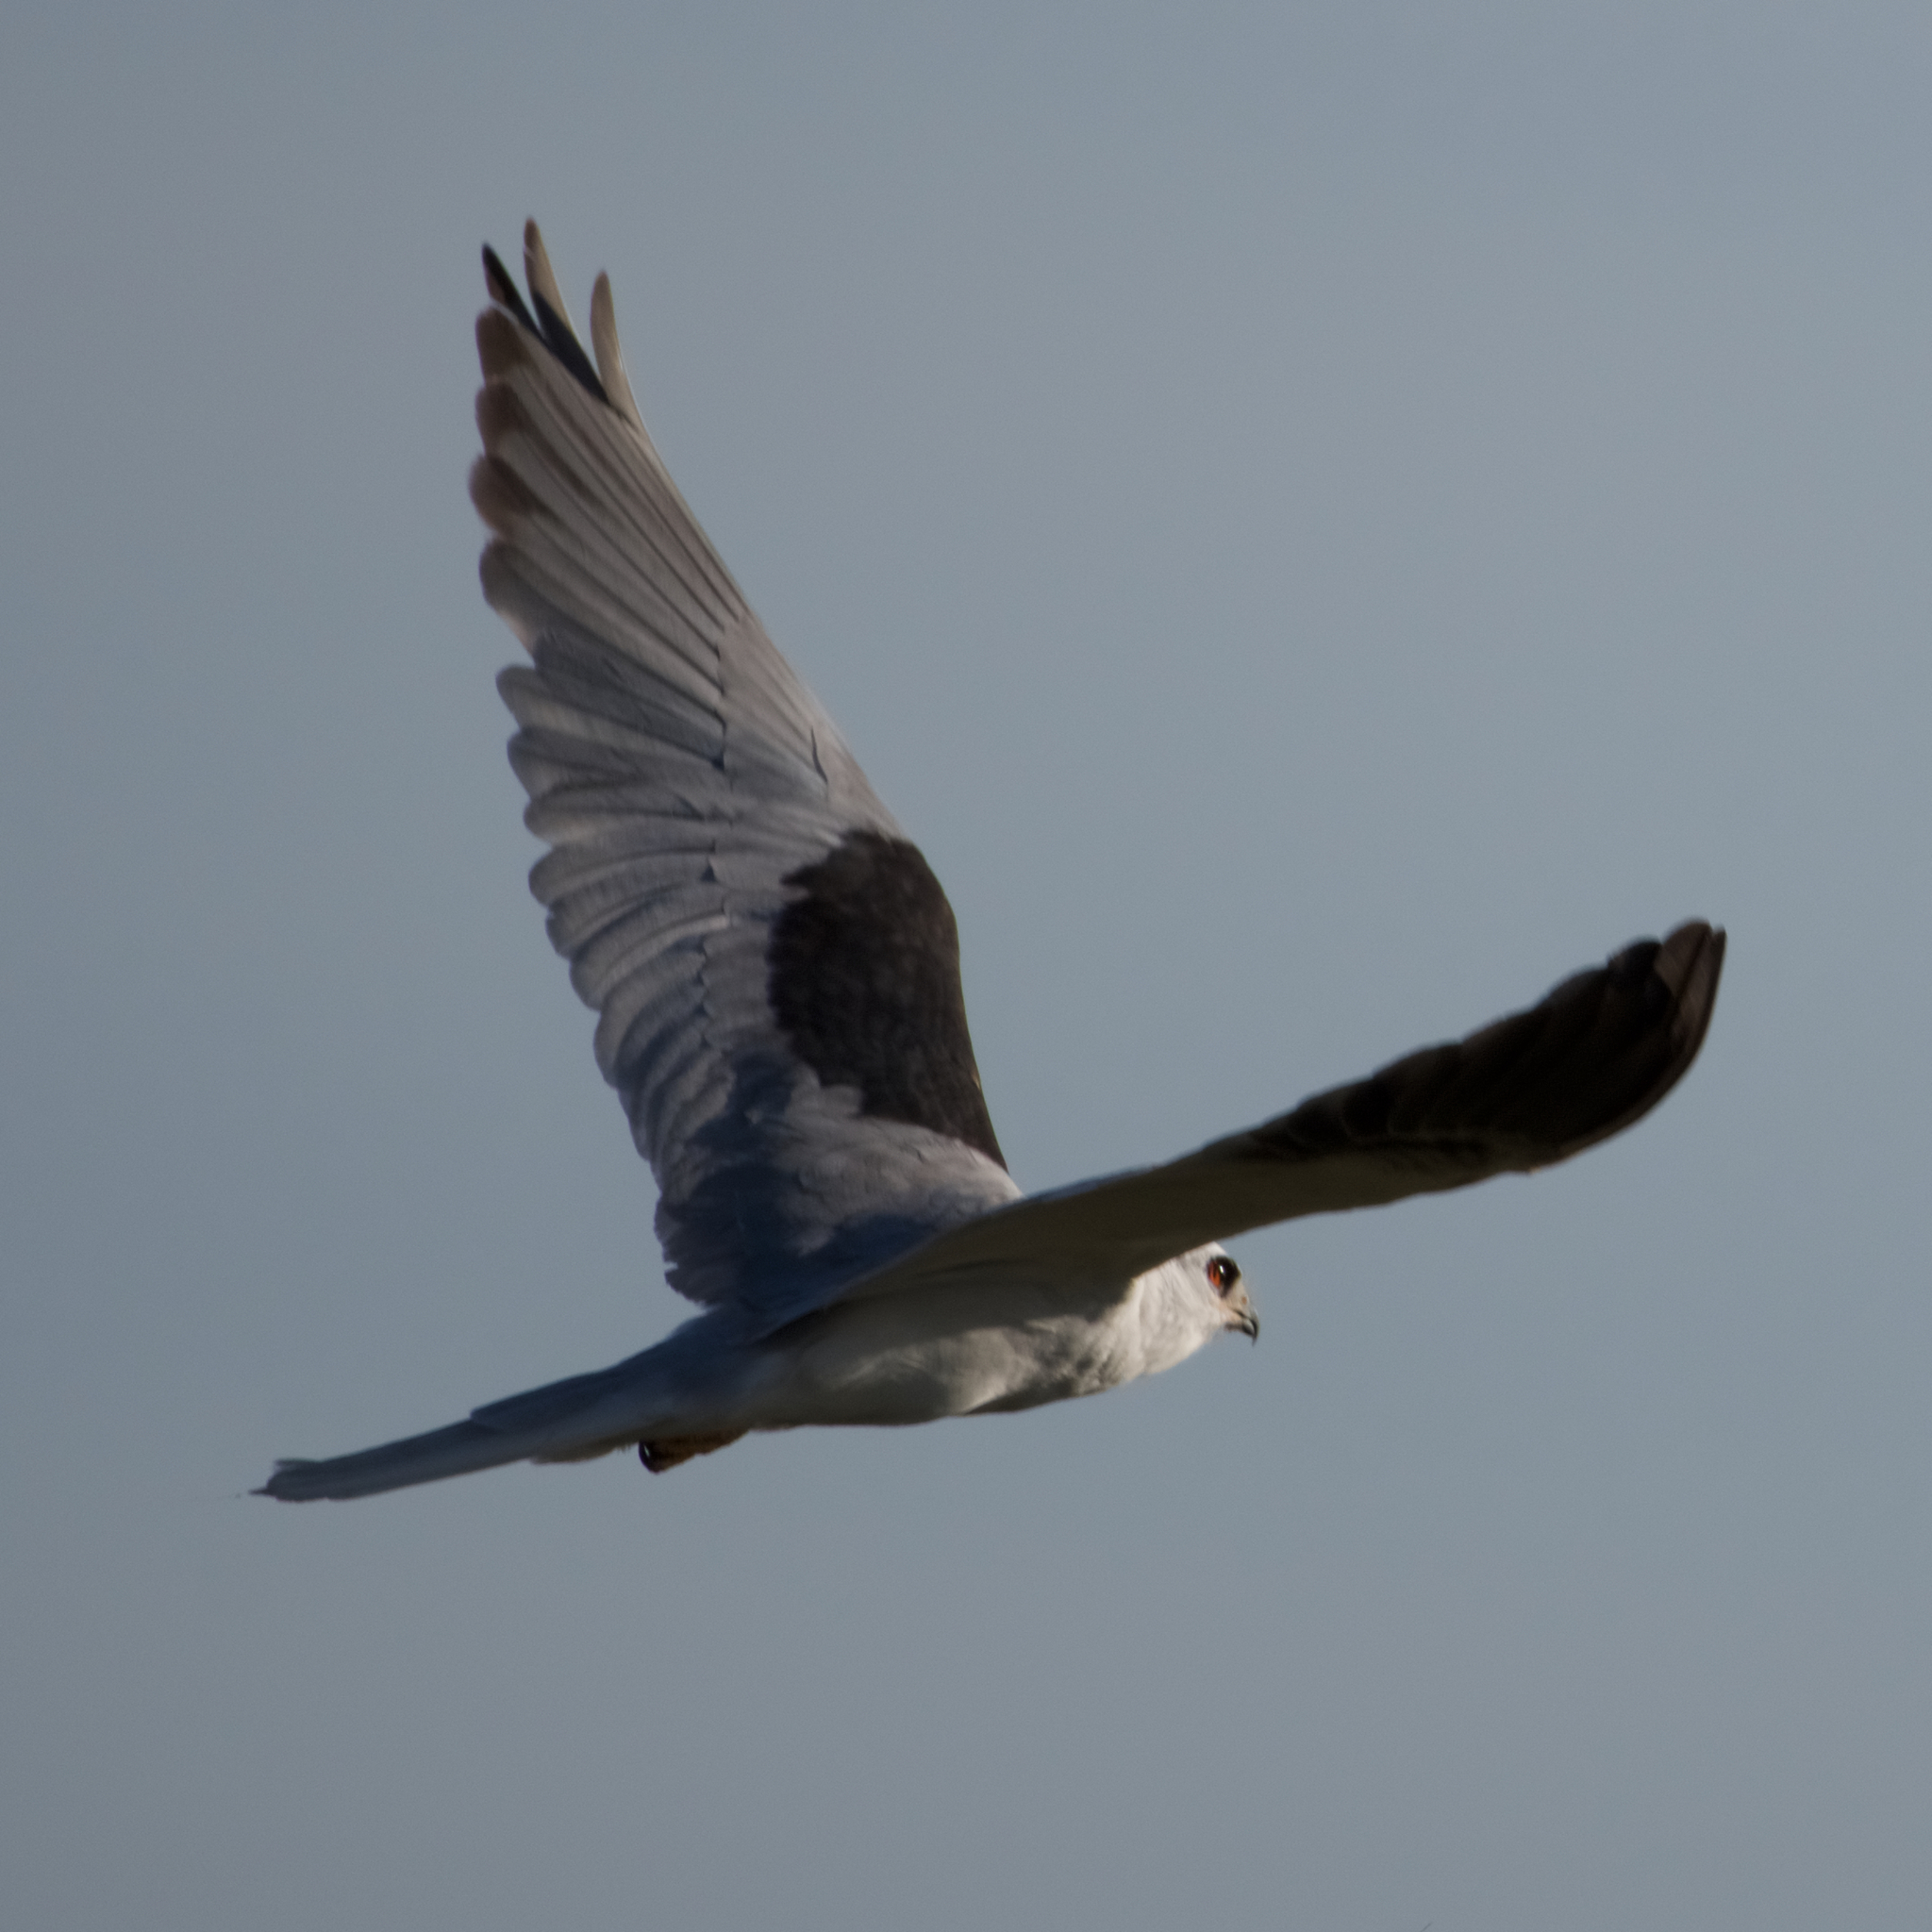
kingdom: Animalia
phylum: Chordata
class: Aves
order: Accipitriformes
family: Accipitridae
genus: Elanus
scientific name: Elanus leucurus
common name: White-tailed kite
